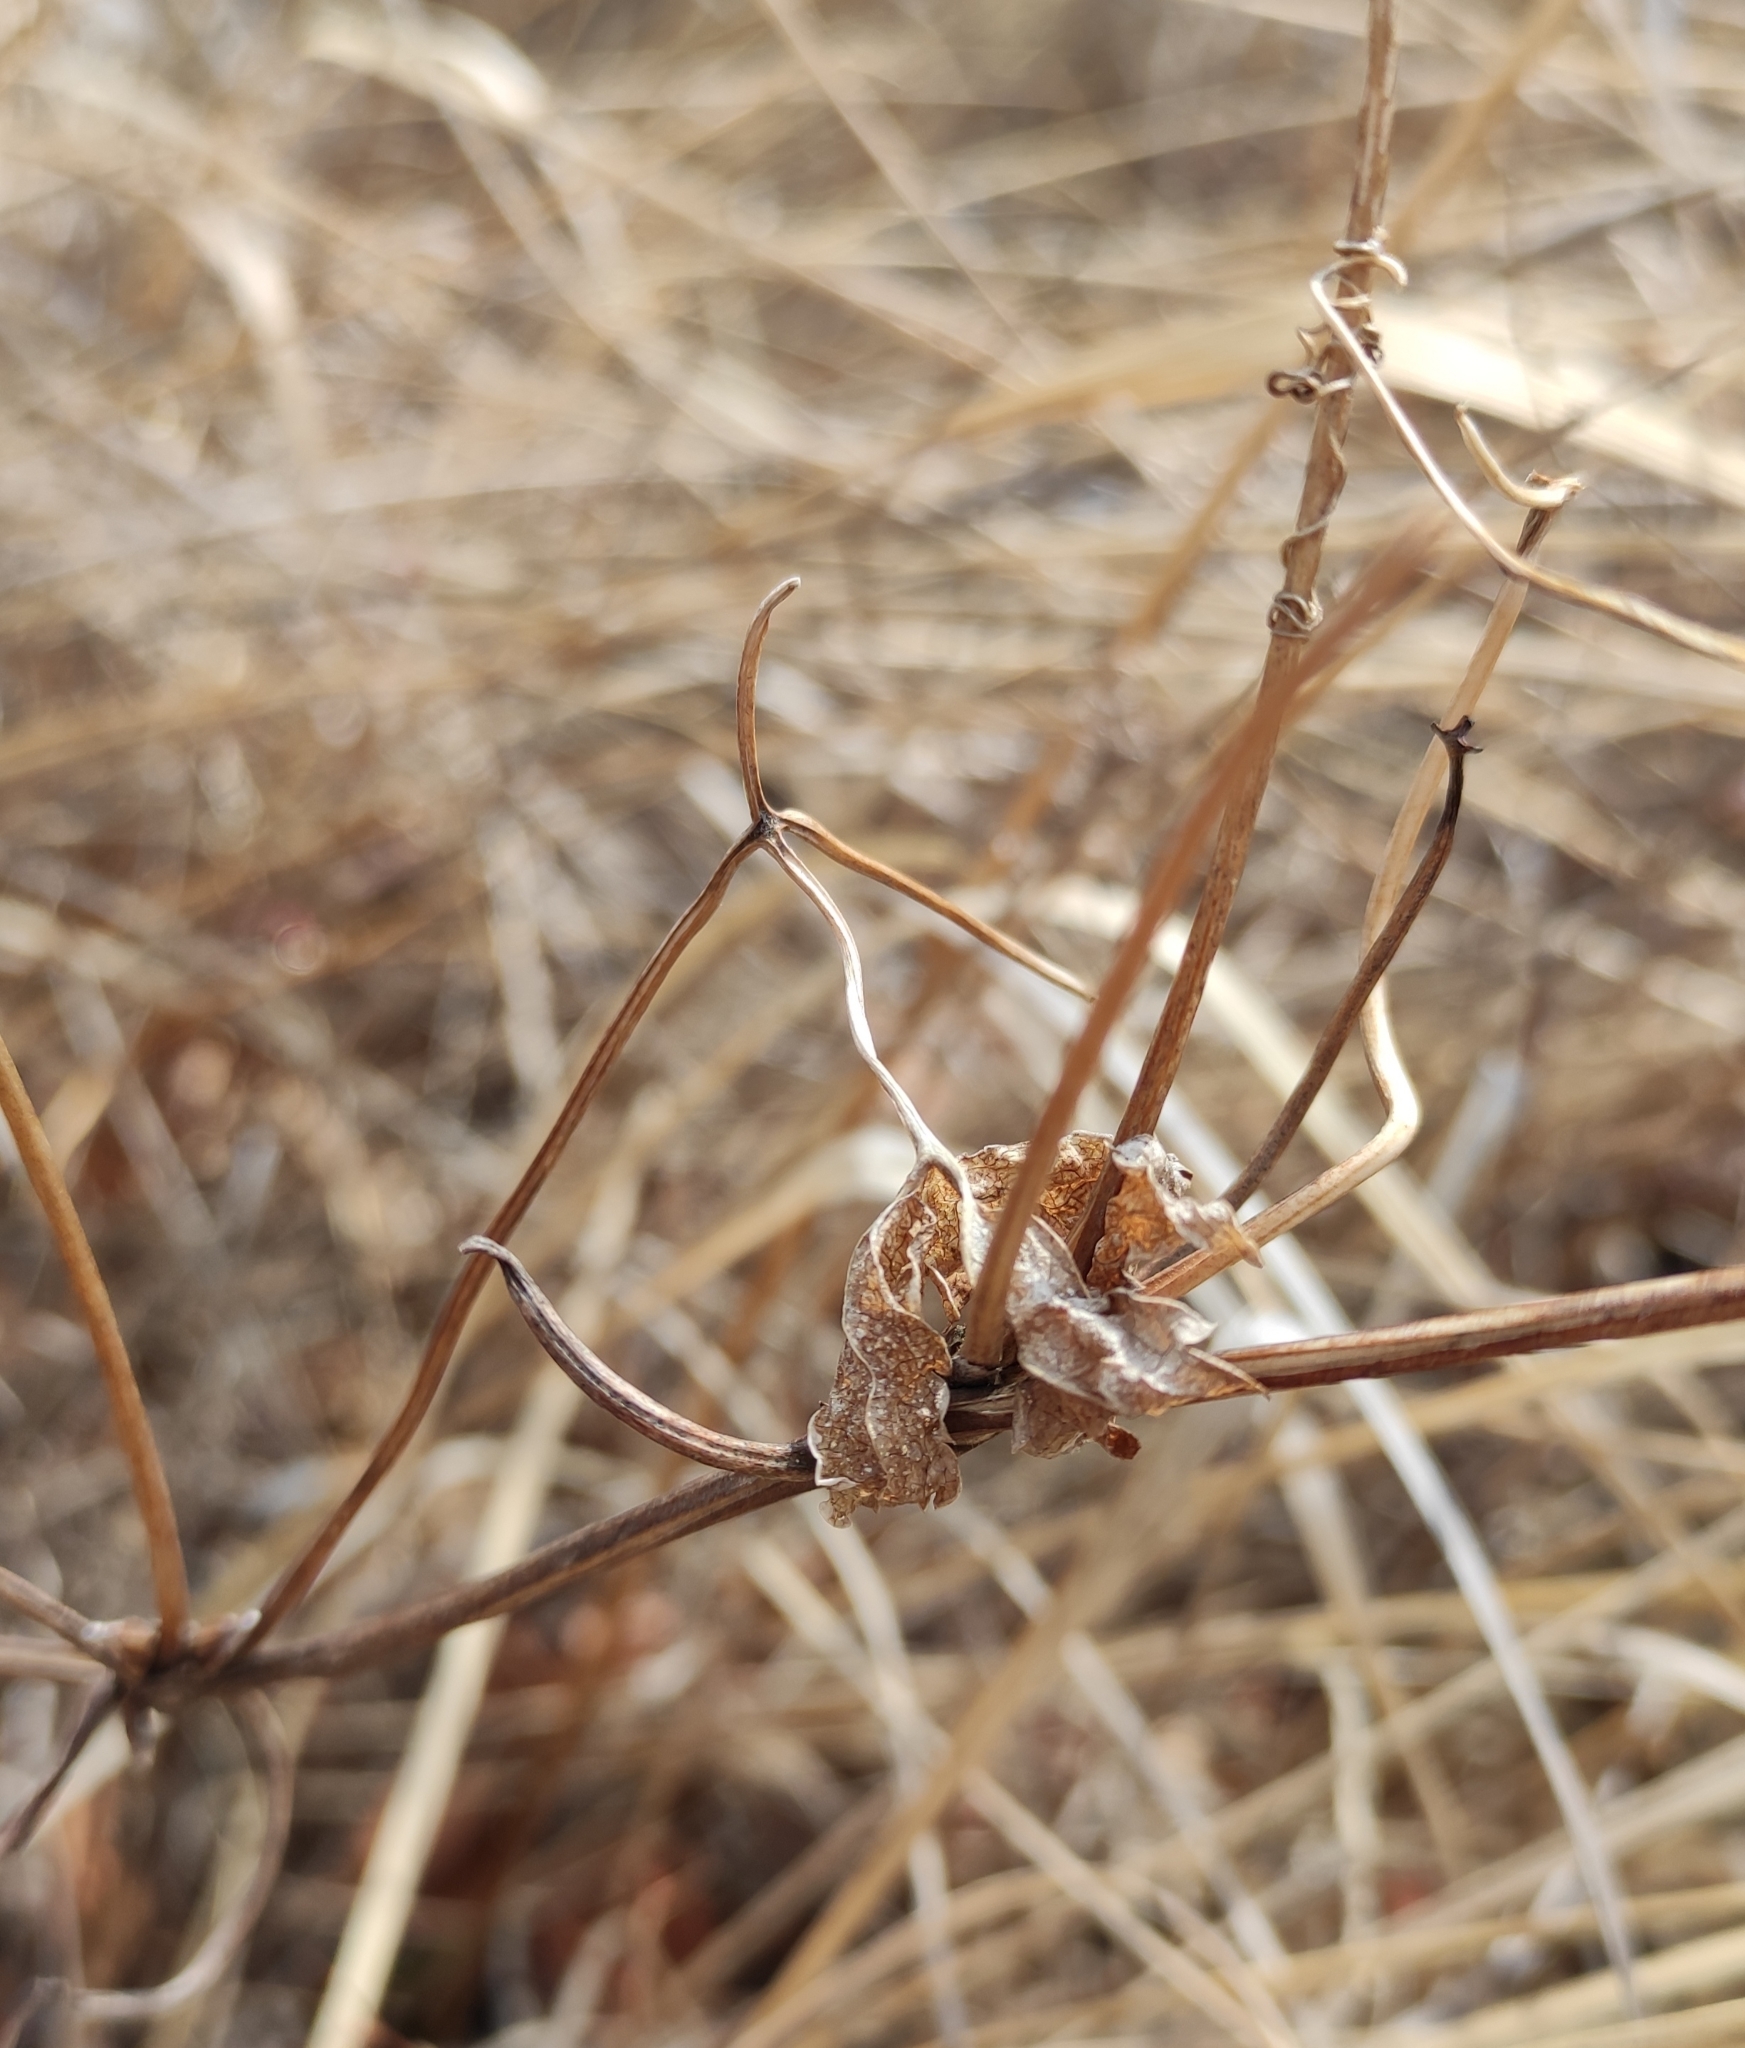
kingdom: Plantae
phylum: Tracheophyta
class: Magnoliopsida
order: Ranunculales
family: Ranunculaceae
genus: Clematis
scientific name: Clematis sibirica
